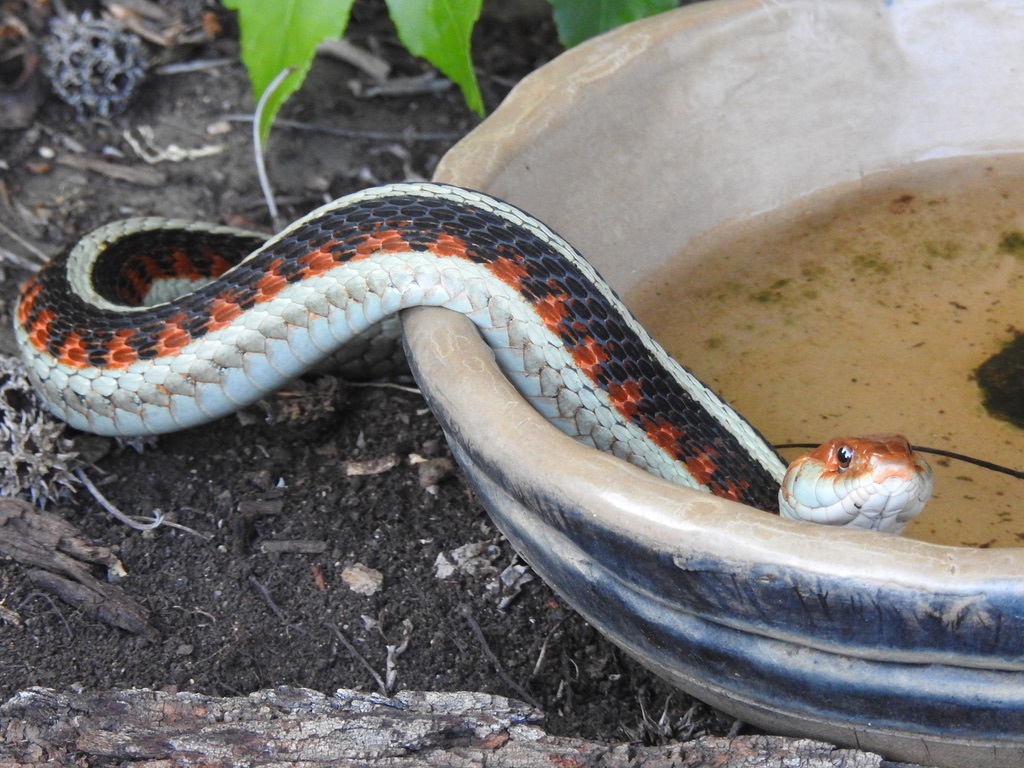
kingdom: Animalia
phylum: Chordata
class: Squamata
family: Colubridae
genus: Thamnophis
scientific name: Thamnophis sirtalis
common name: Common garter snake
